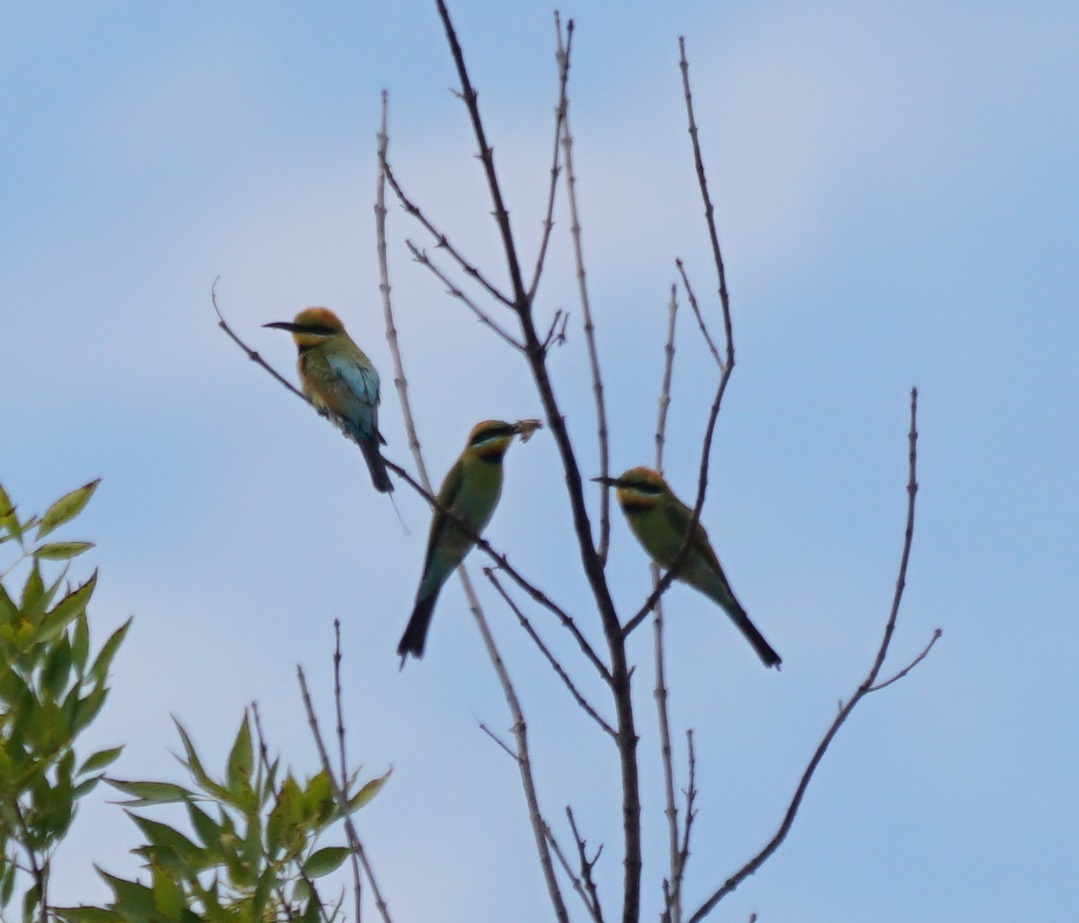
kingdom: Animalia
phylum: Chordata
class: Aves
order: Coraciiformes
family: Meropidae
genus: Merops
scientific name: Merops ornatus
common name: Rainbow bee-eater
